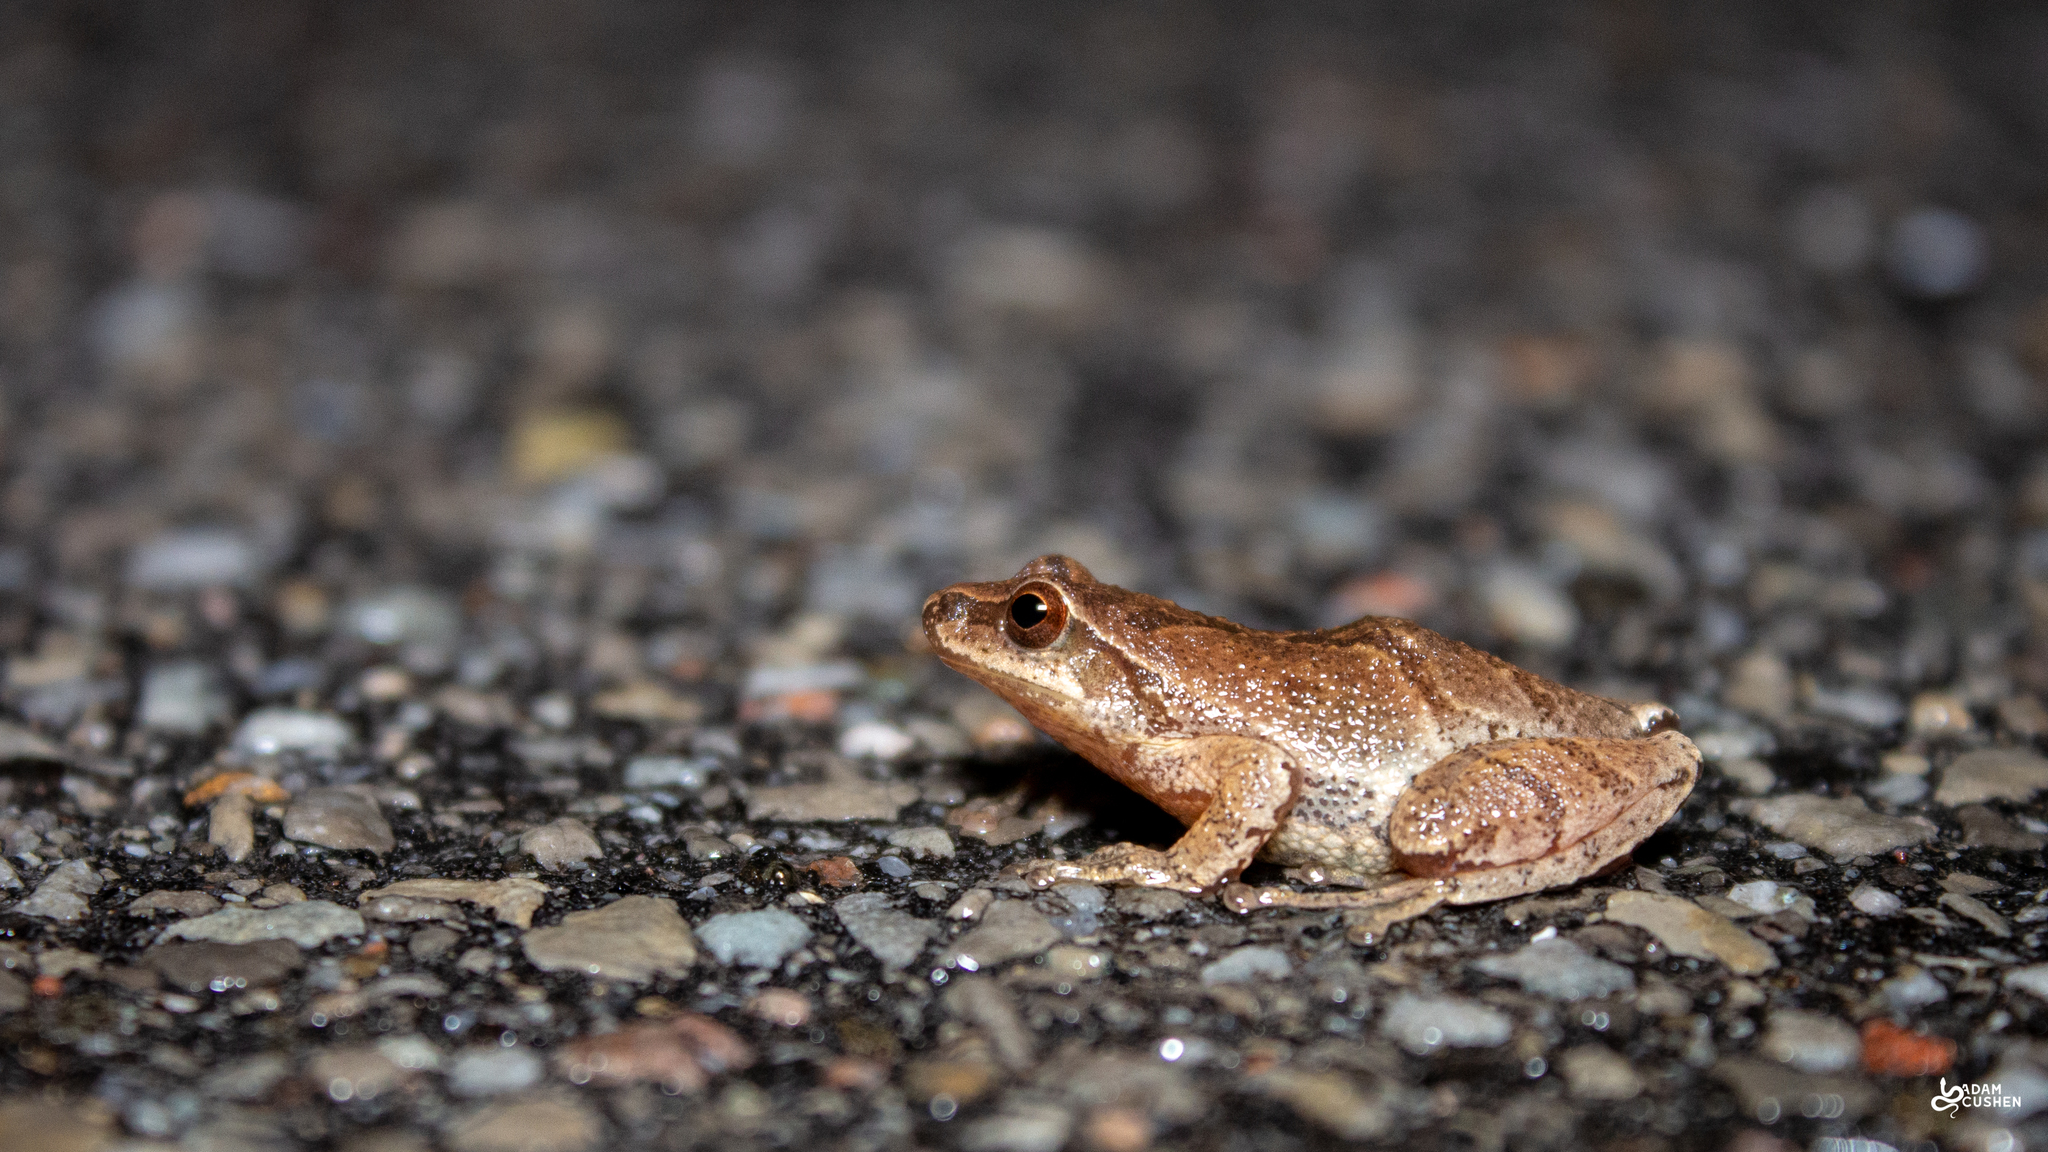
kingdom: Animalia
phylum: Chordata
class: Amphibia
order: Anura
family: Hylidae
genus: Pseudacris
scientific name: Pseudacris crucifer
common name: Spring peeper
